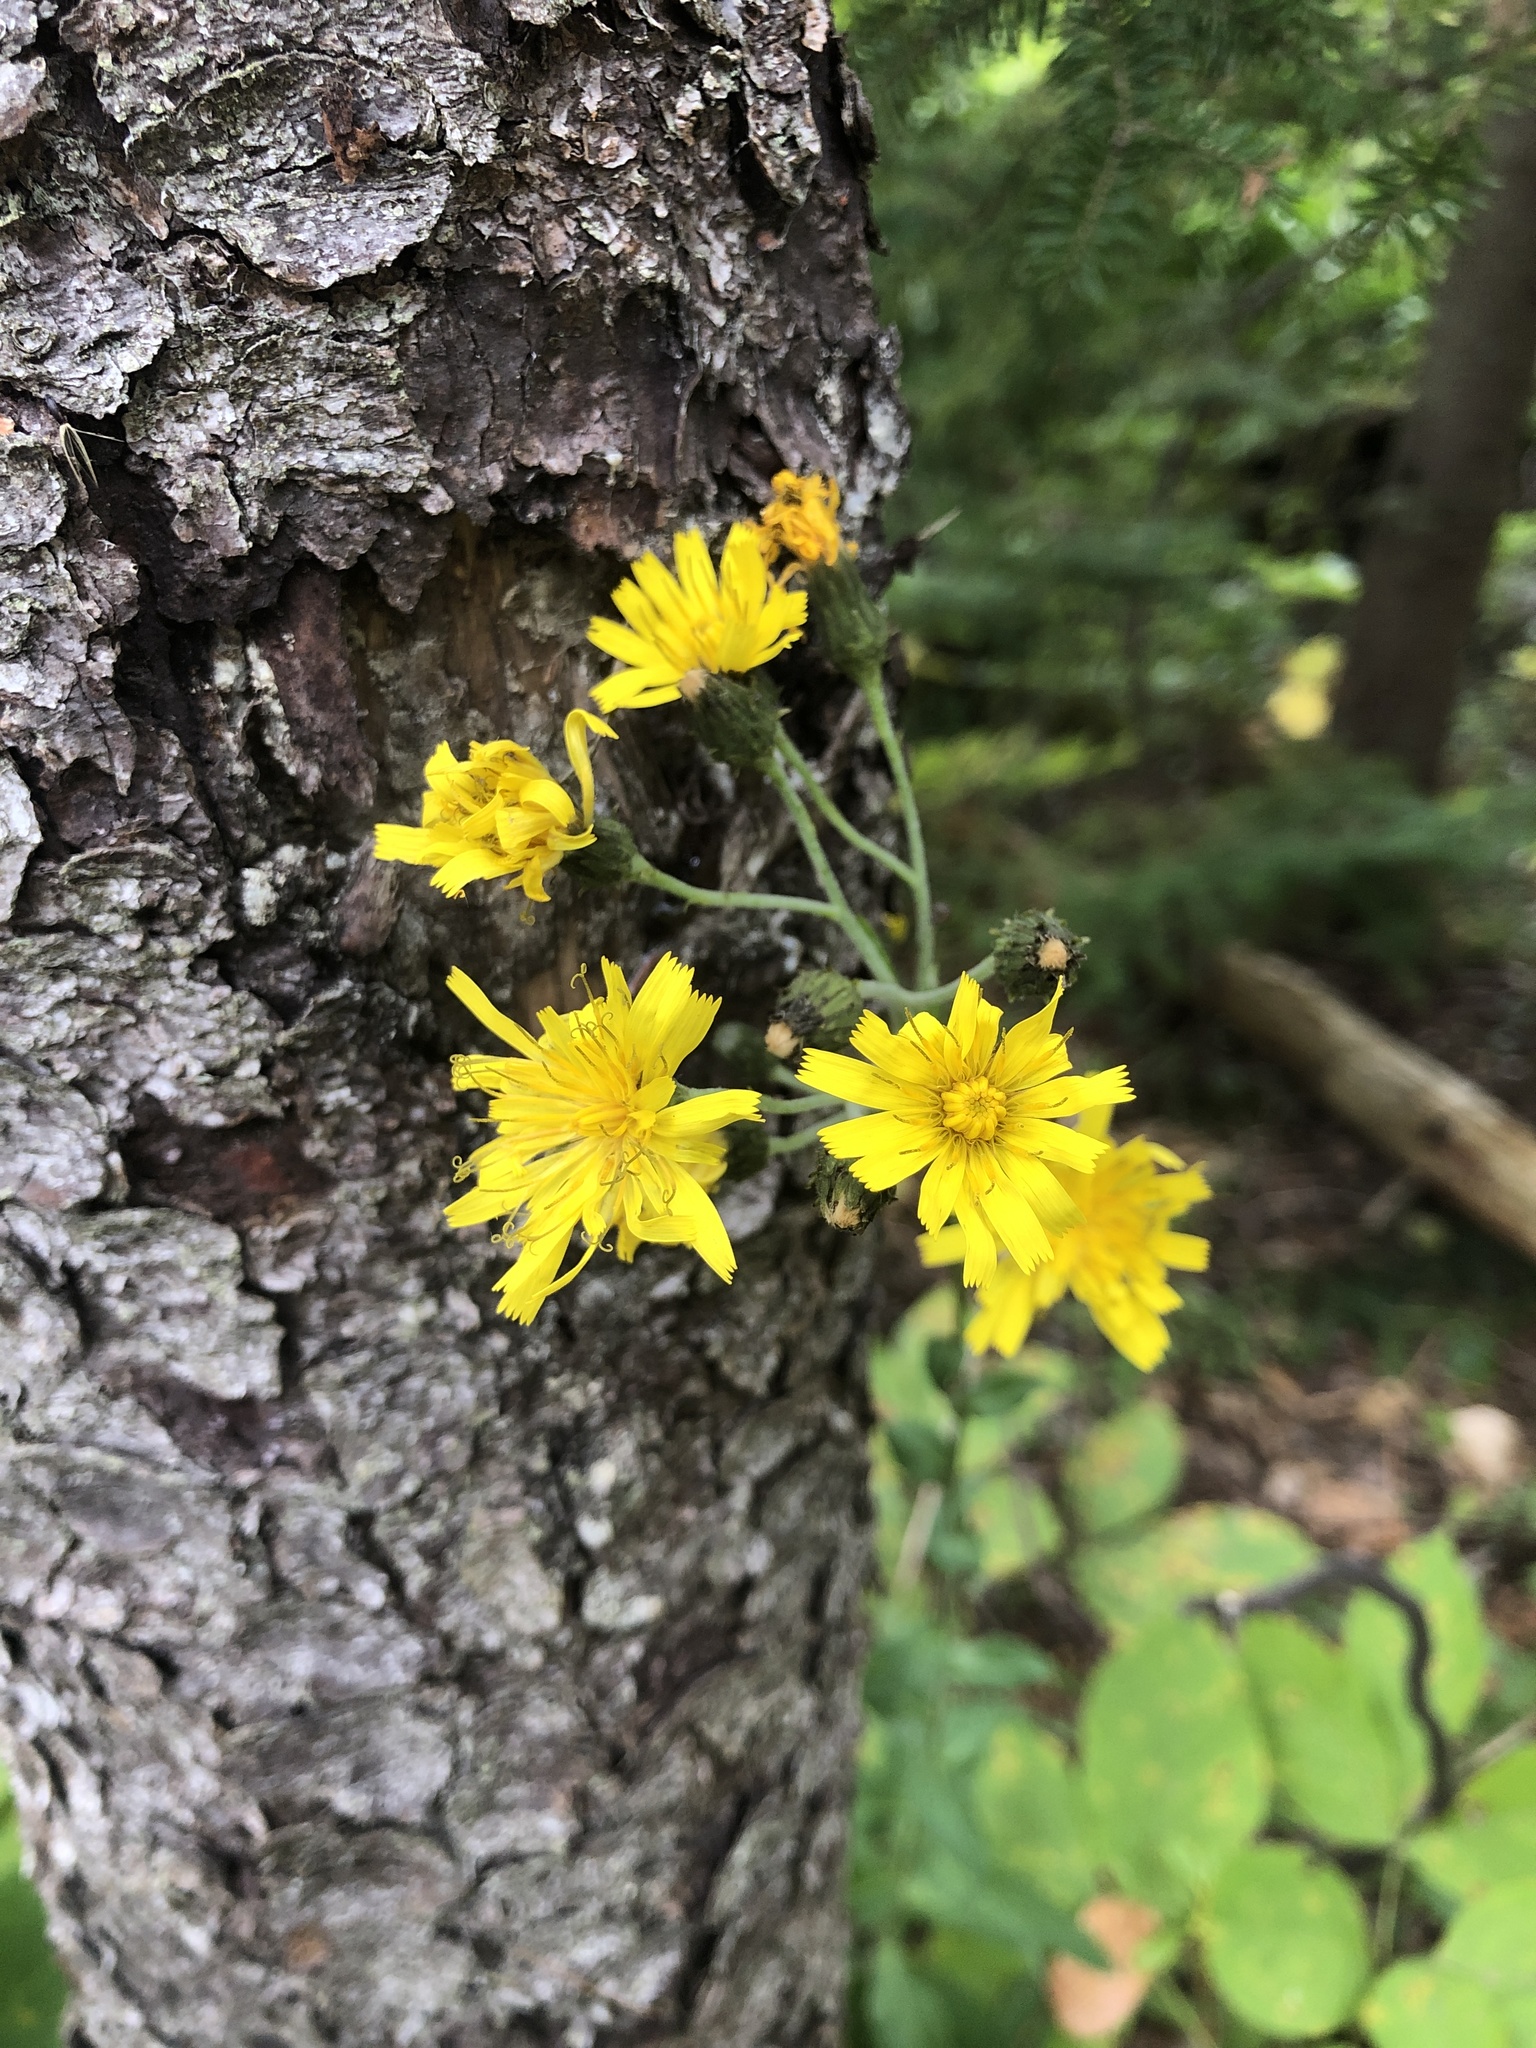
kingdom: Plantae
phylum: Tracheophyta
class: Magnoliopsida
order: Asterales
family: Asteraceae
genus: Hieracium
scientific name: Hieracium umbellatum
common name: Northern hawkweed
